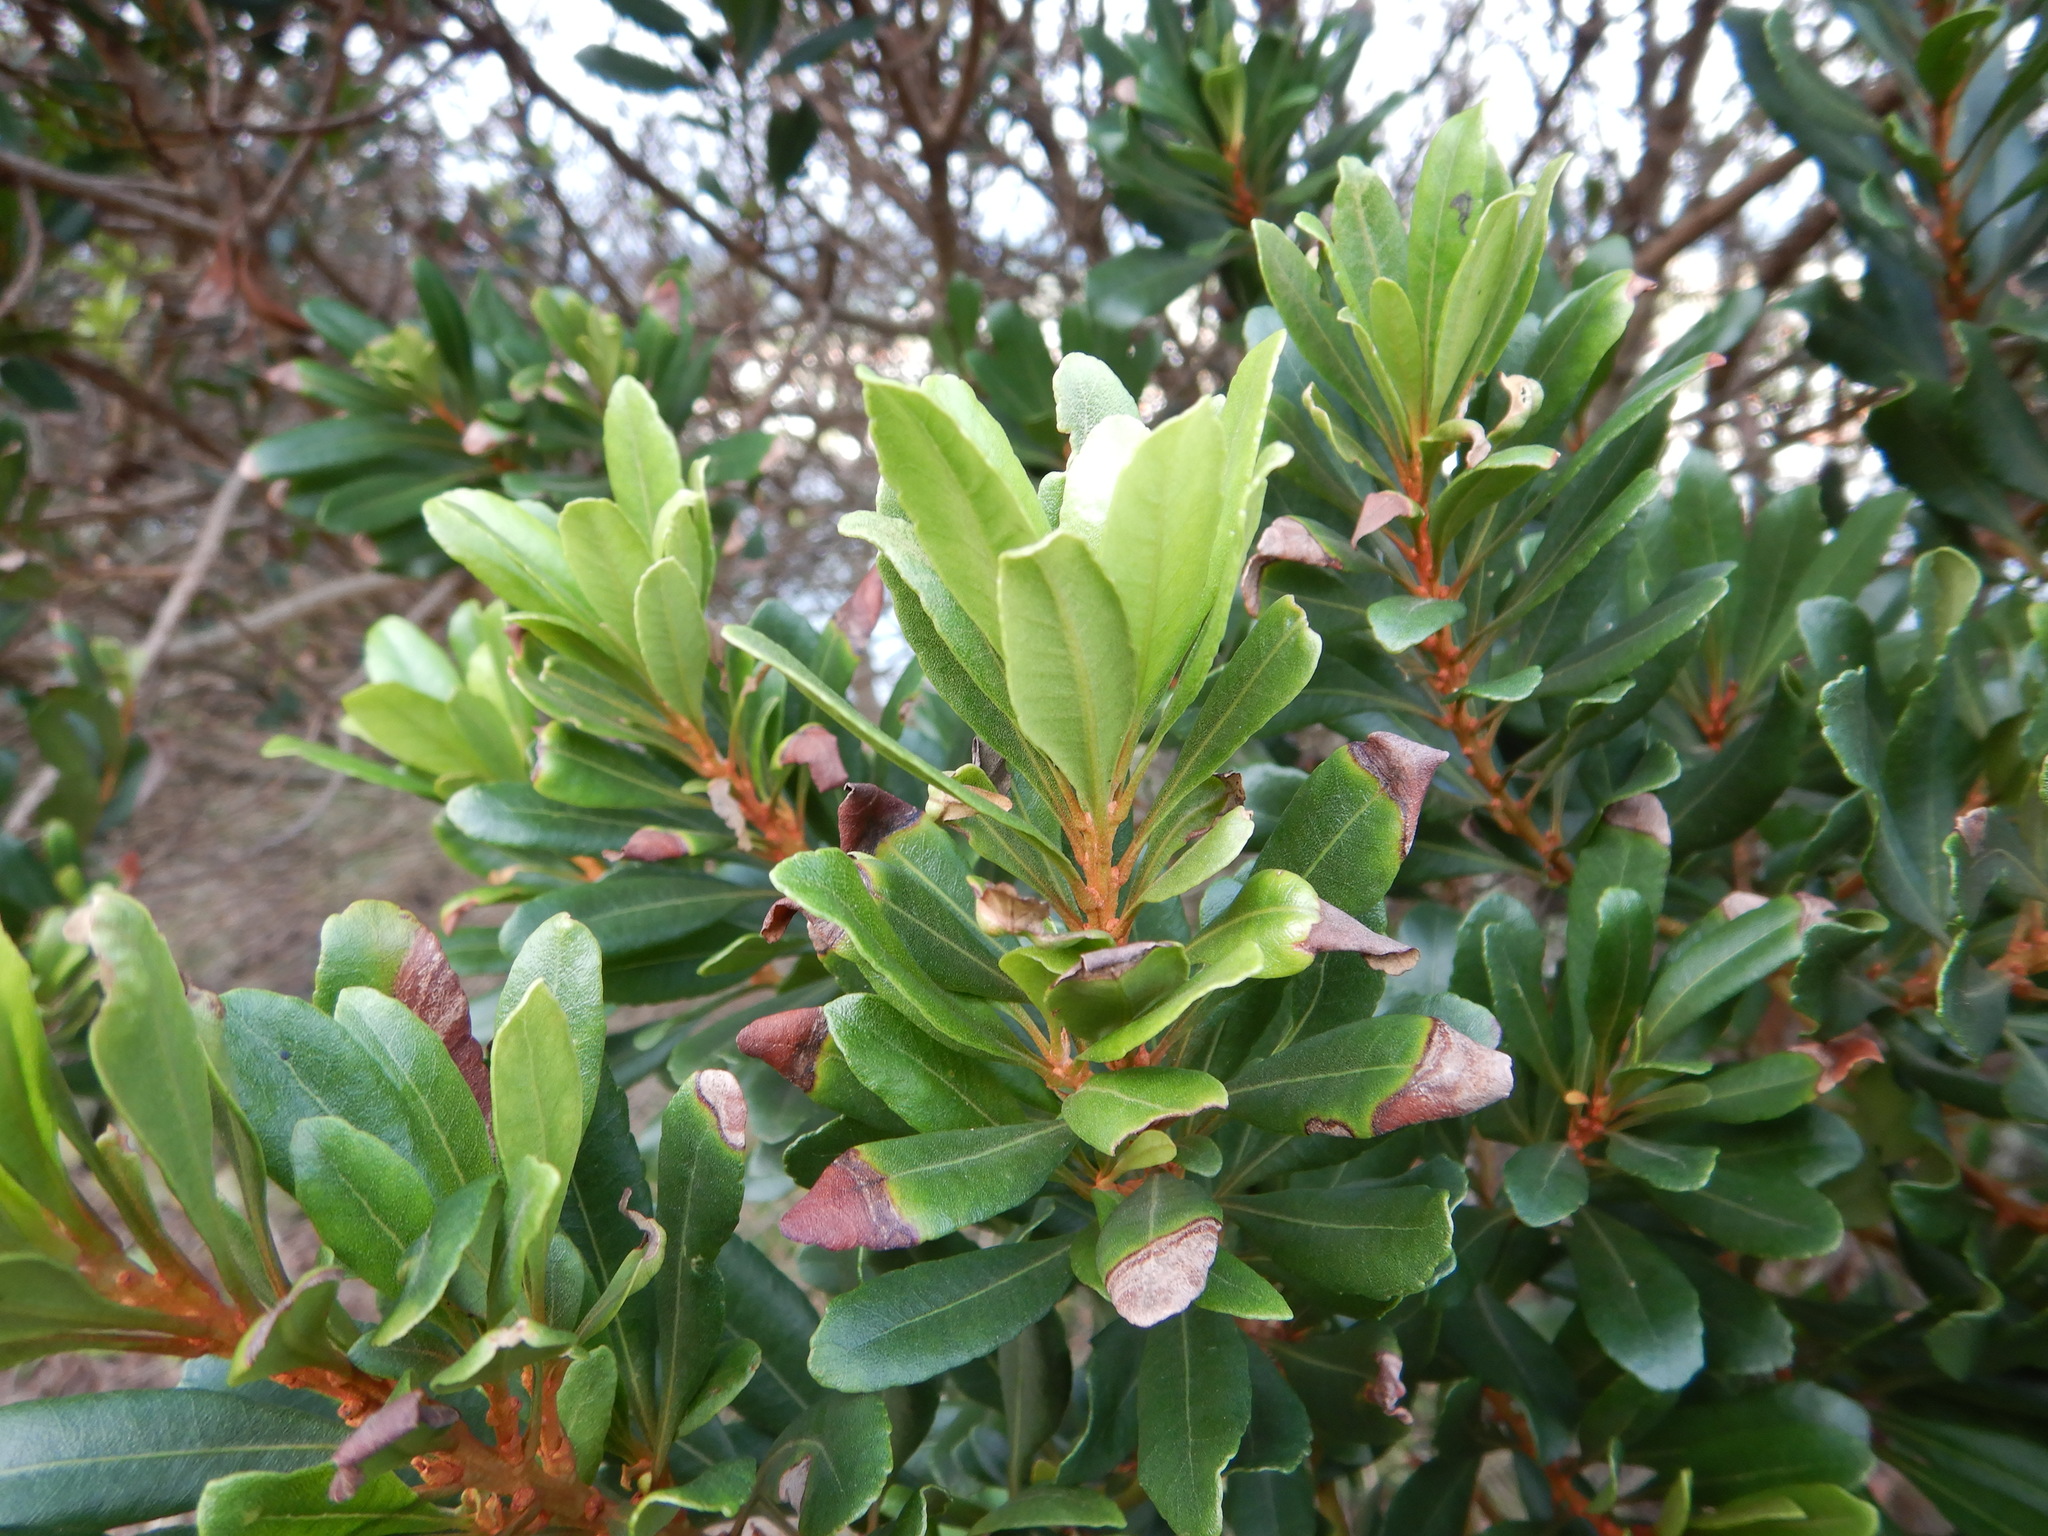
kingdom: Plantae
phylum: Tracheophyta
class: Magnoliopsida
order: Fagales
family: Myricaceae
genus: Morella
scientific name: Morella faya
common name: Firetree
